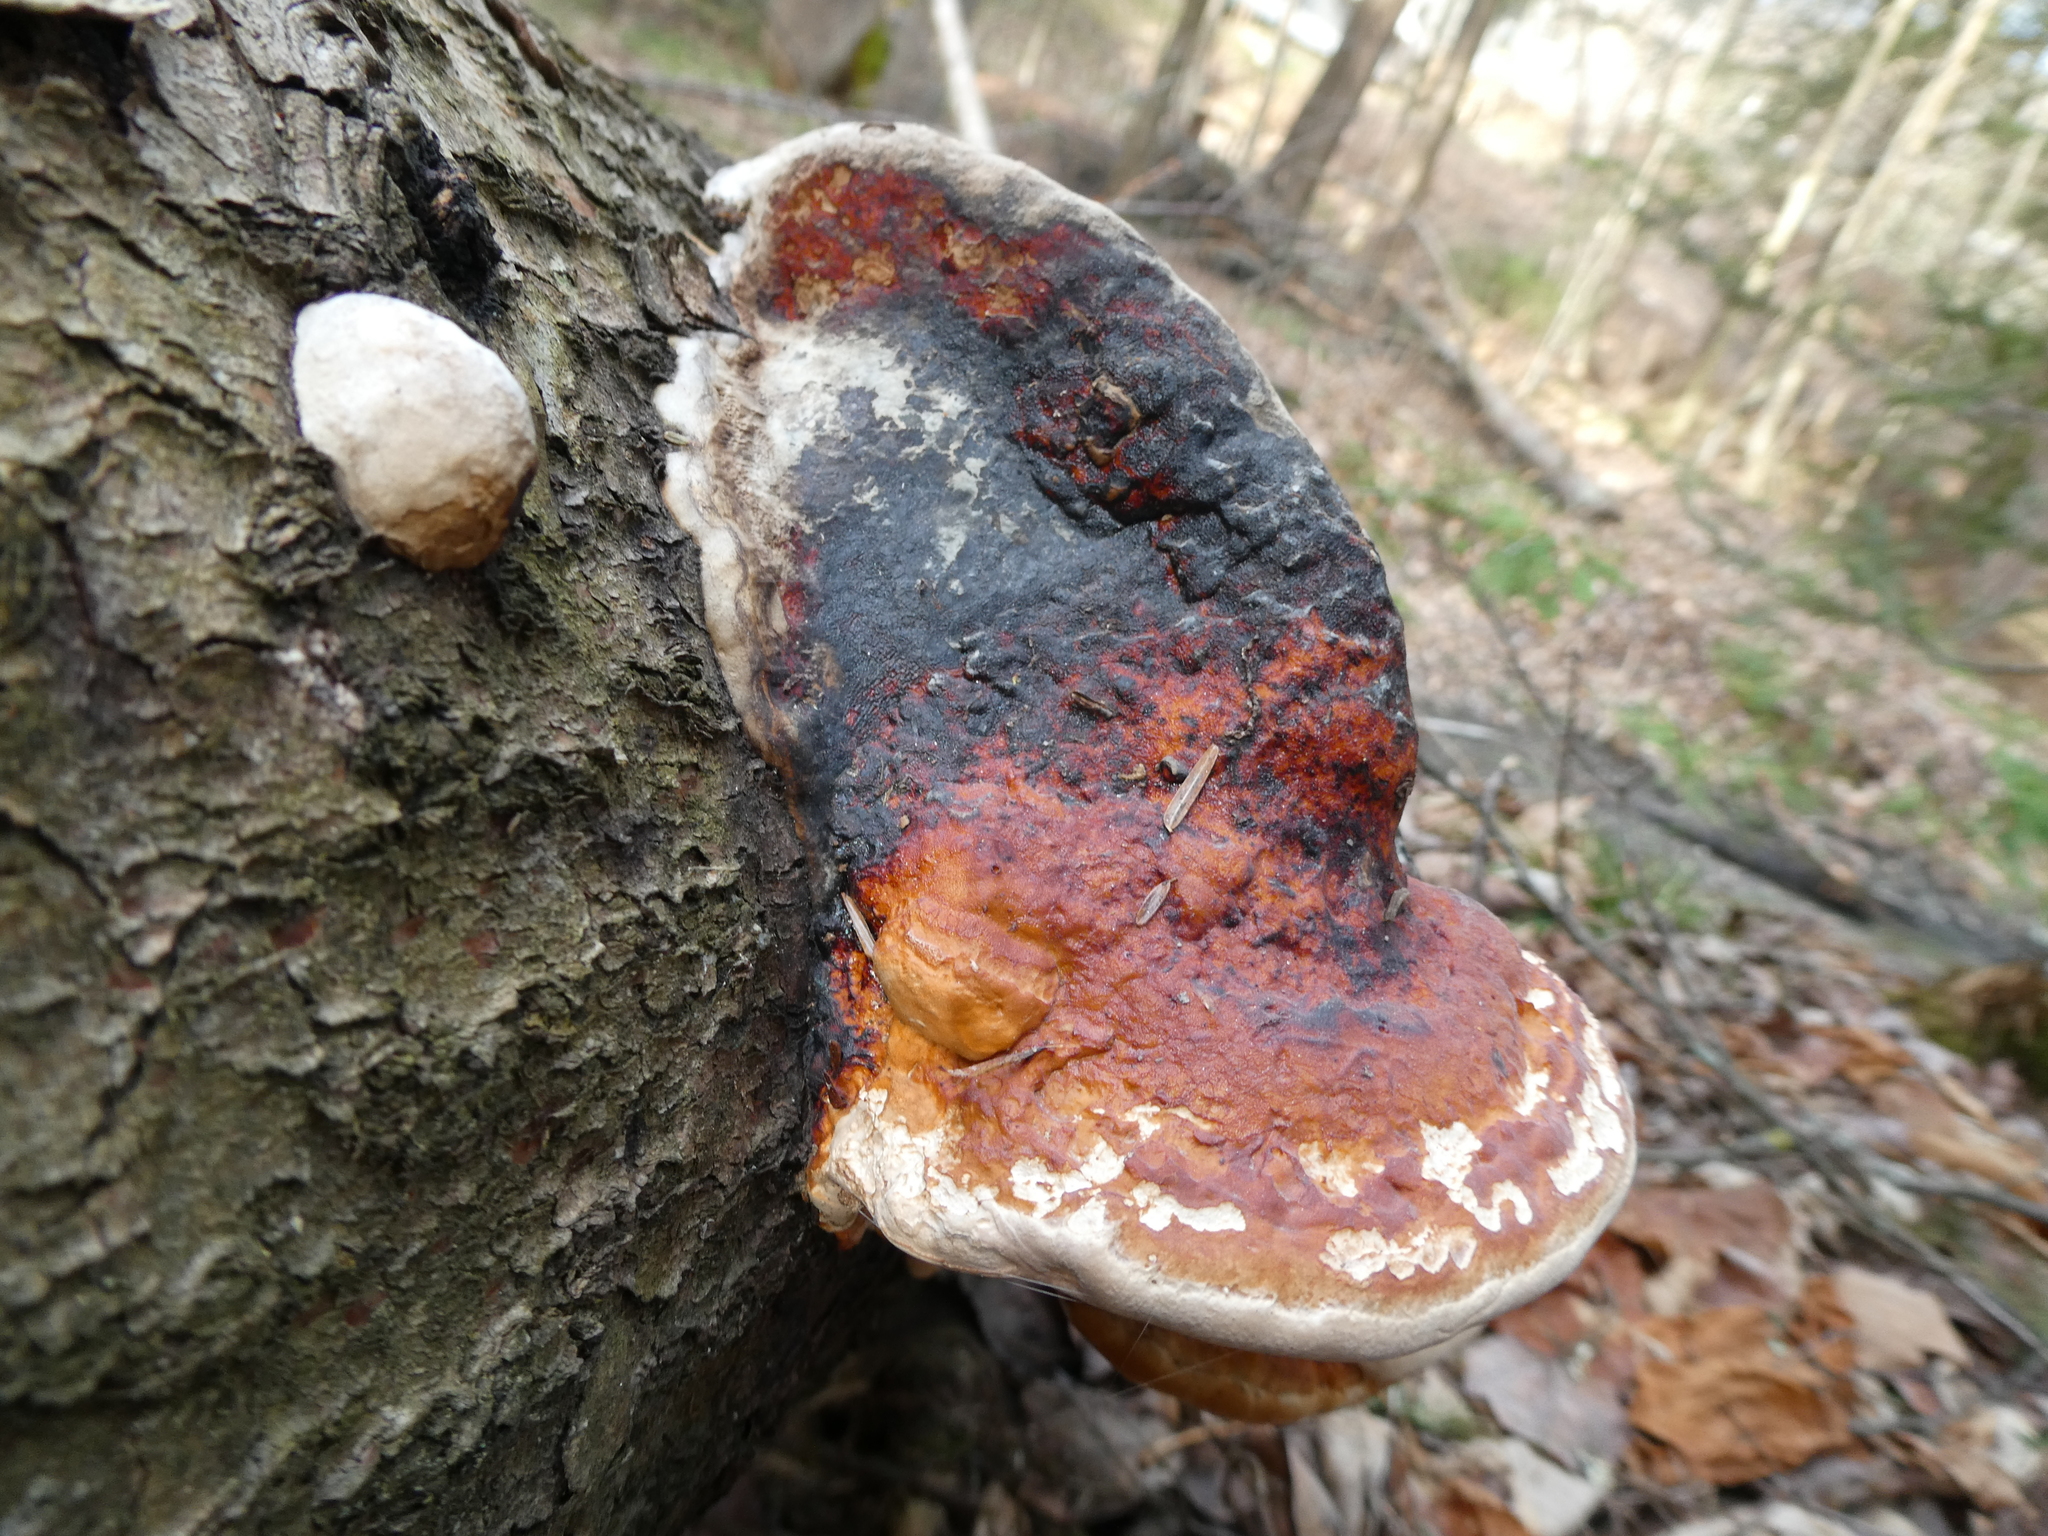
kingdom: Fungi
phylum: Basidiomycota
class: Agaricomycetes
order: Polyporales
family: Fomitopsidaceae
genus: Fomitopsis
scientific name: Fomitopsis mounceae
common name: Northern red belt
